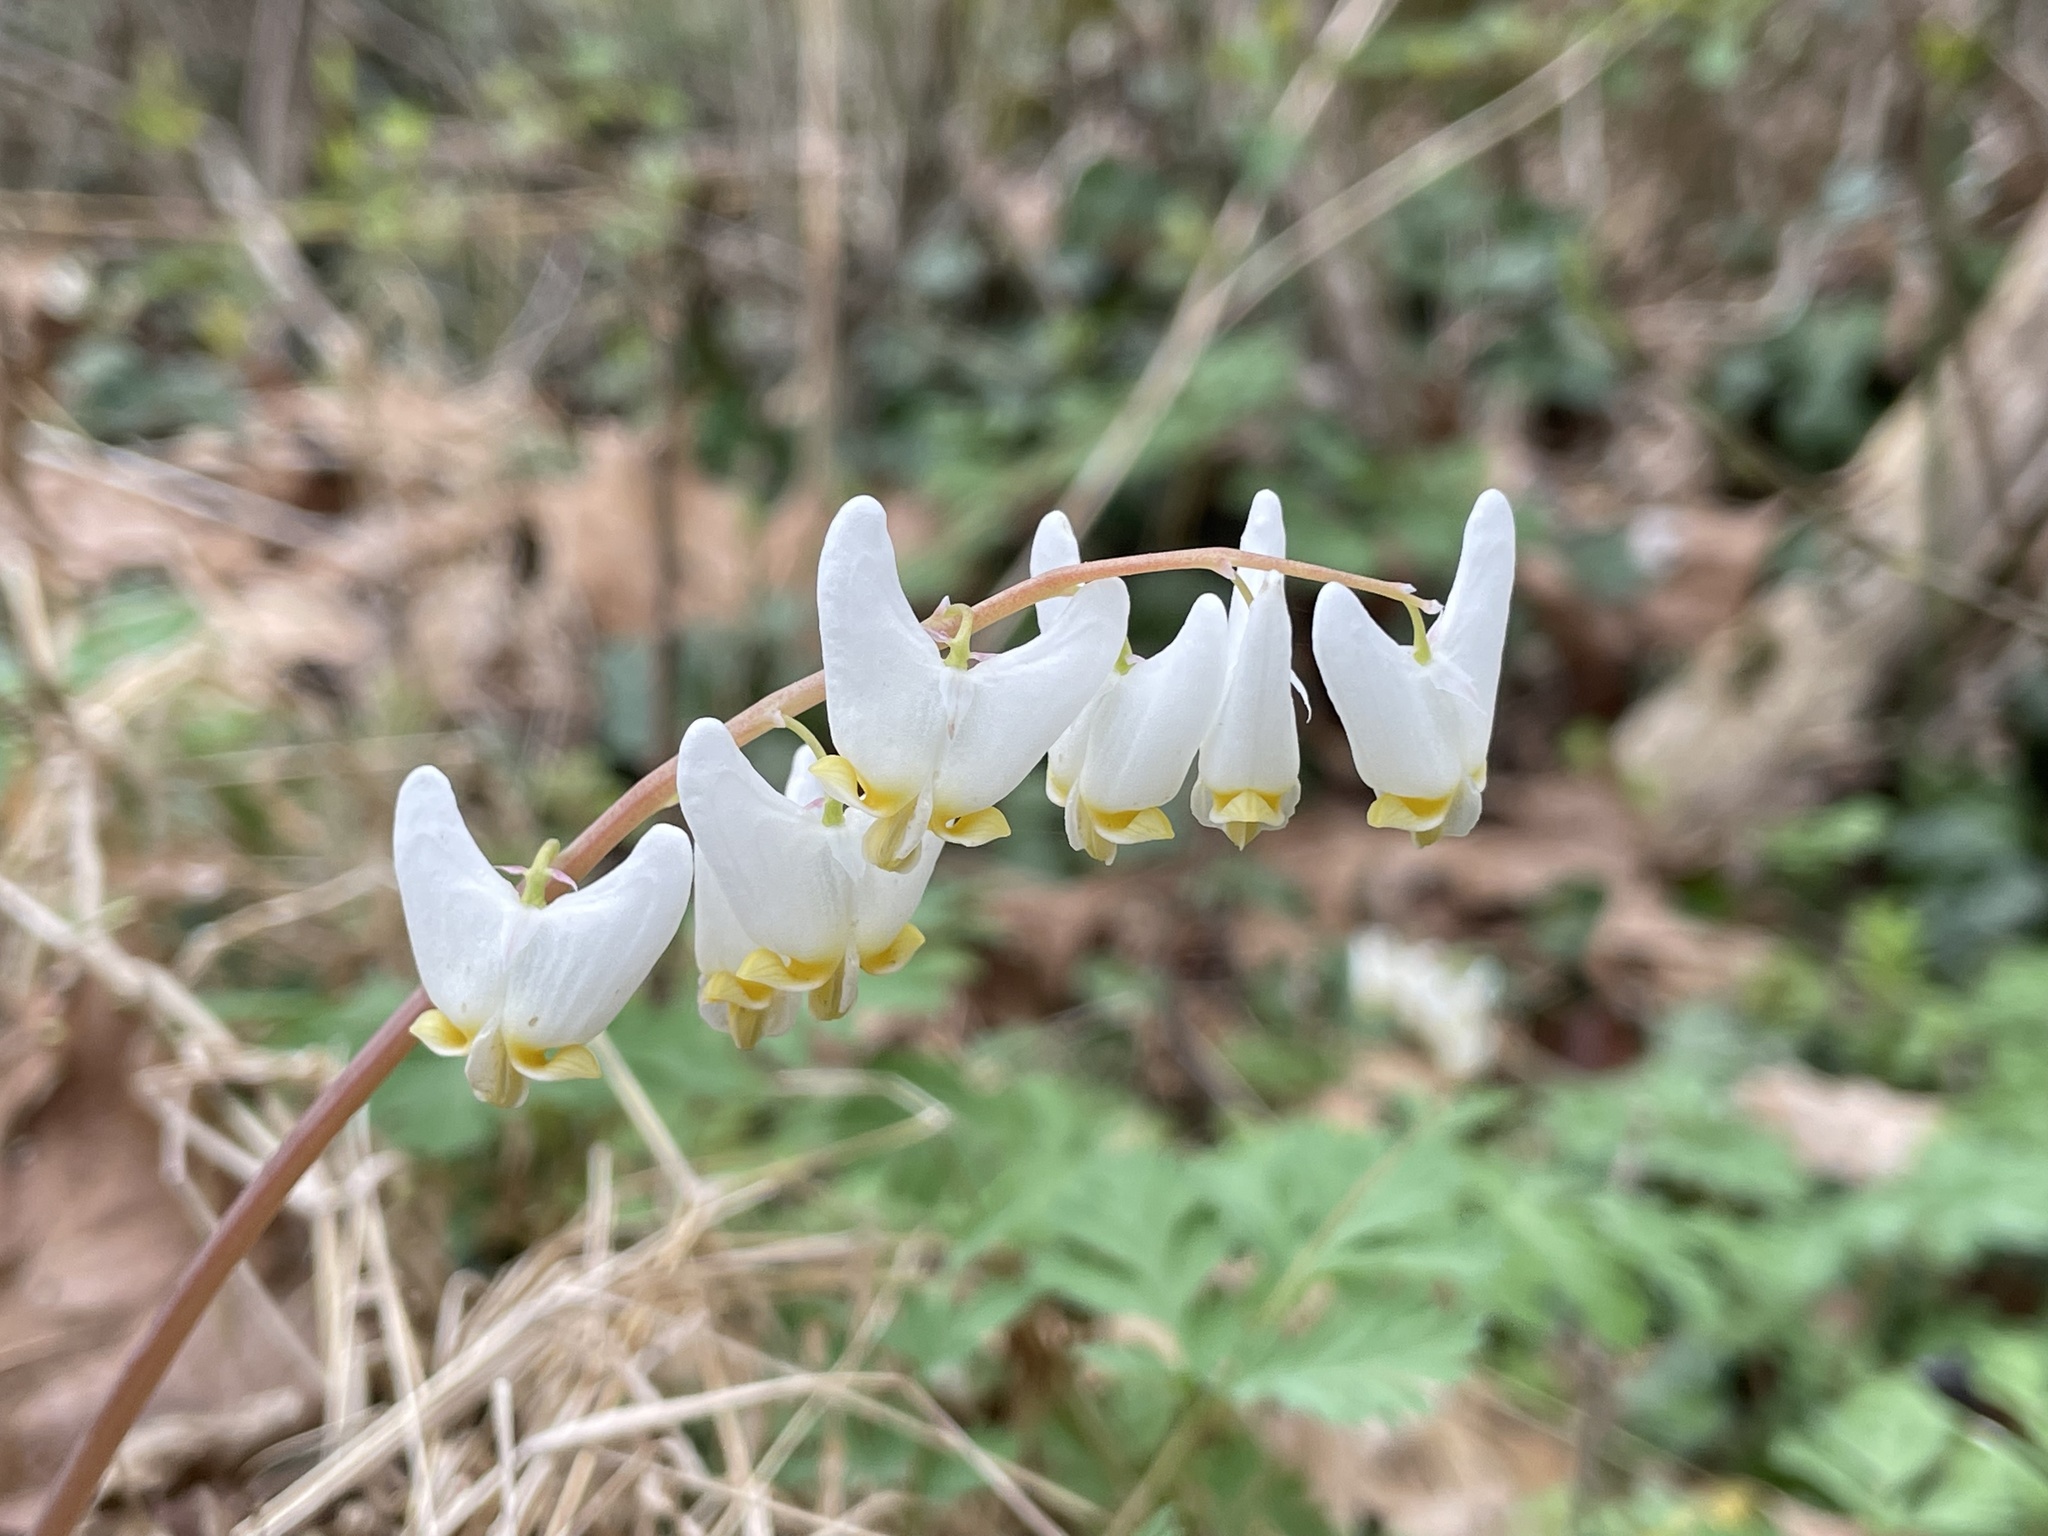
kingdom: Plantae
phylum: Tracheophyta
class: Magnoliopsida
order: Ranunculales
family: Papaveraceae
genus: Dicentra
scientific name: Dicentra cucullaria
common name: Dutchman's breeches
